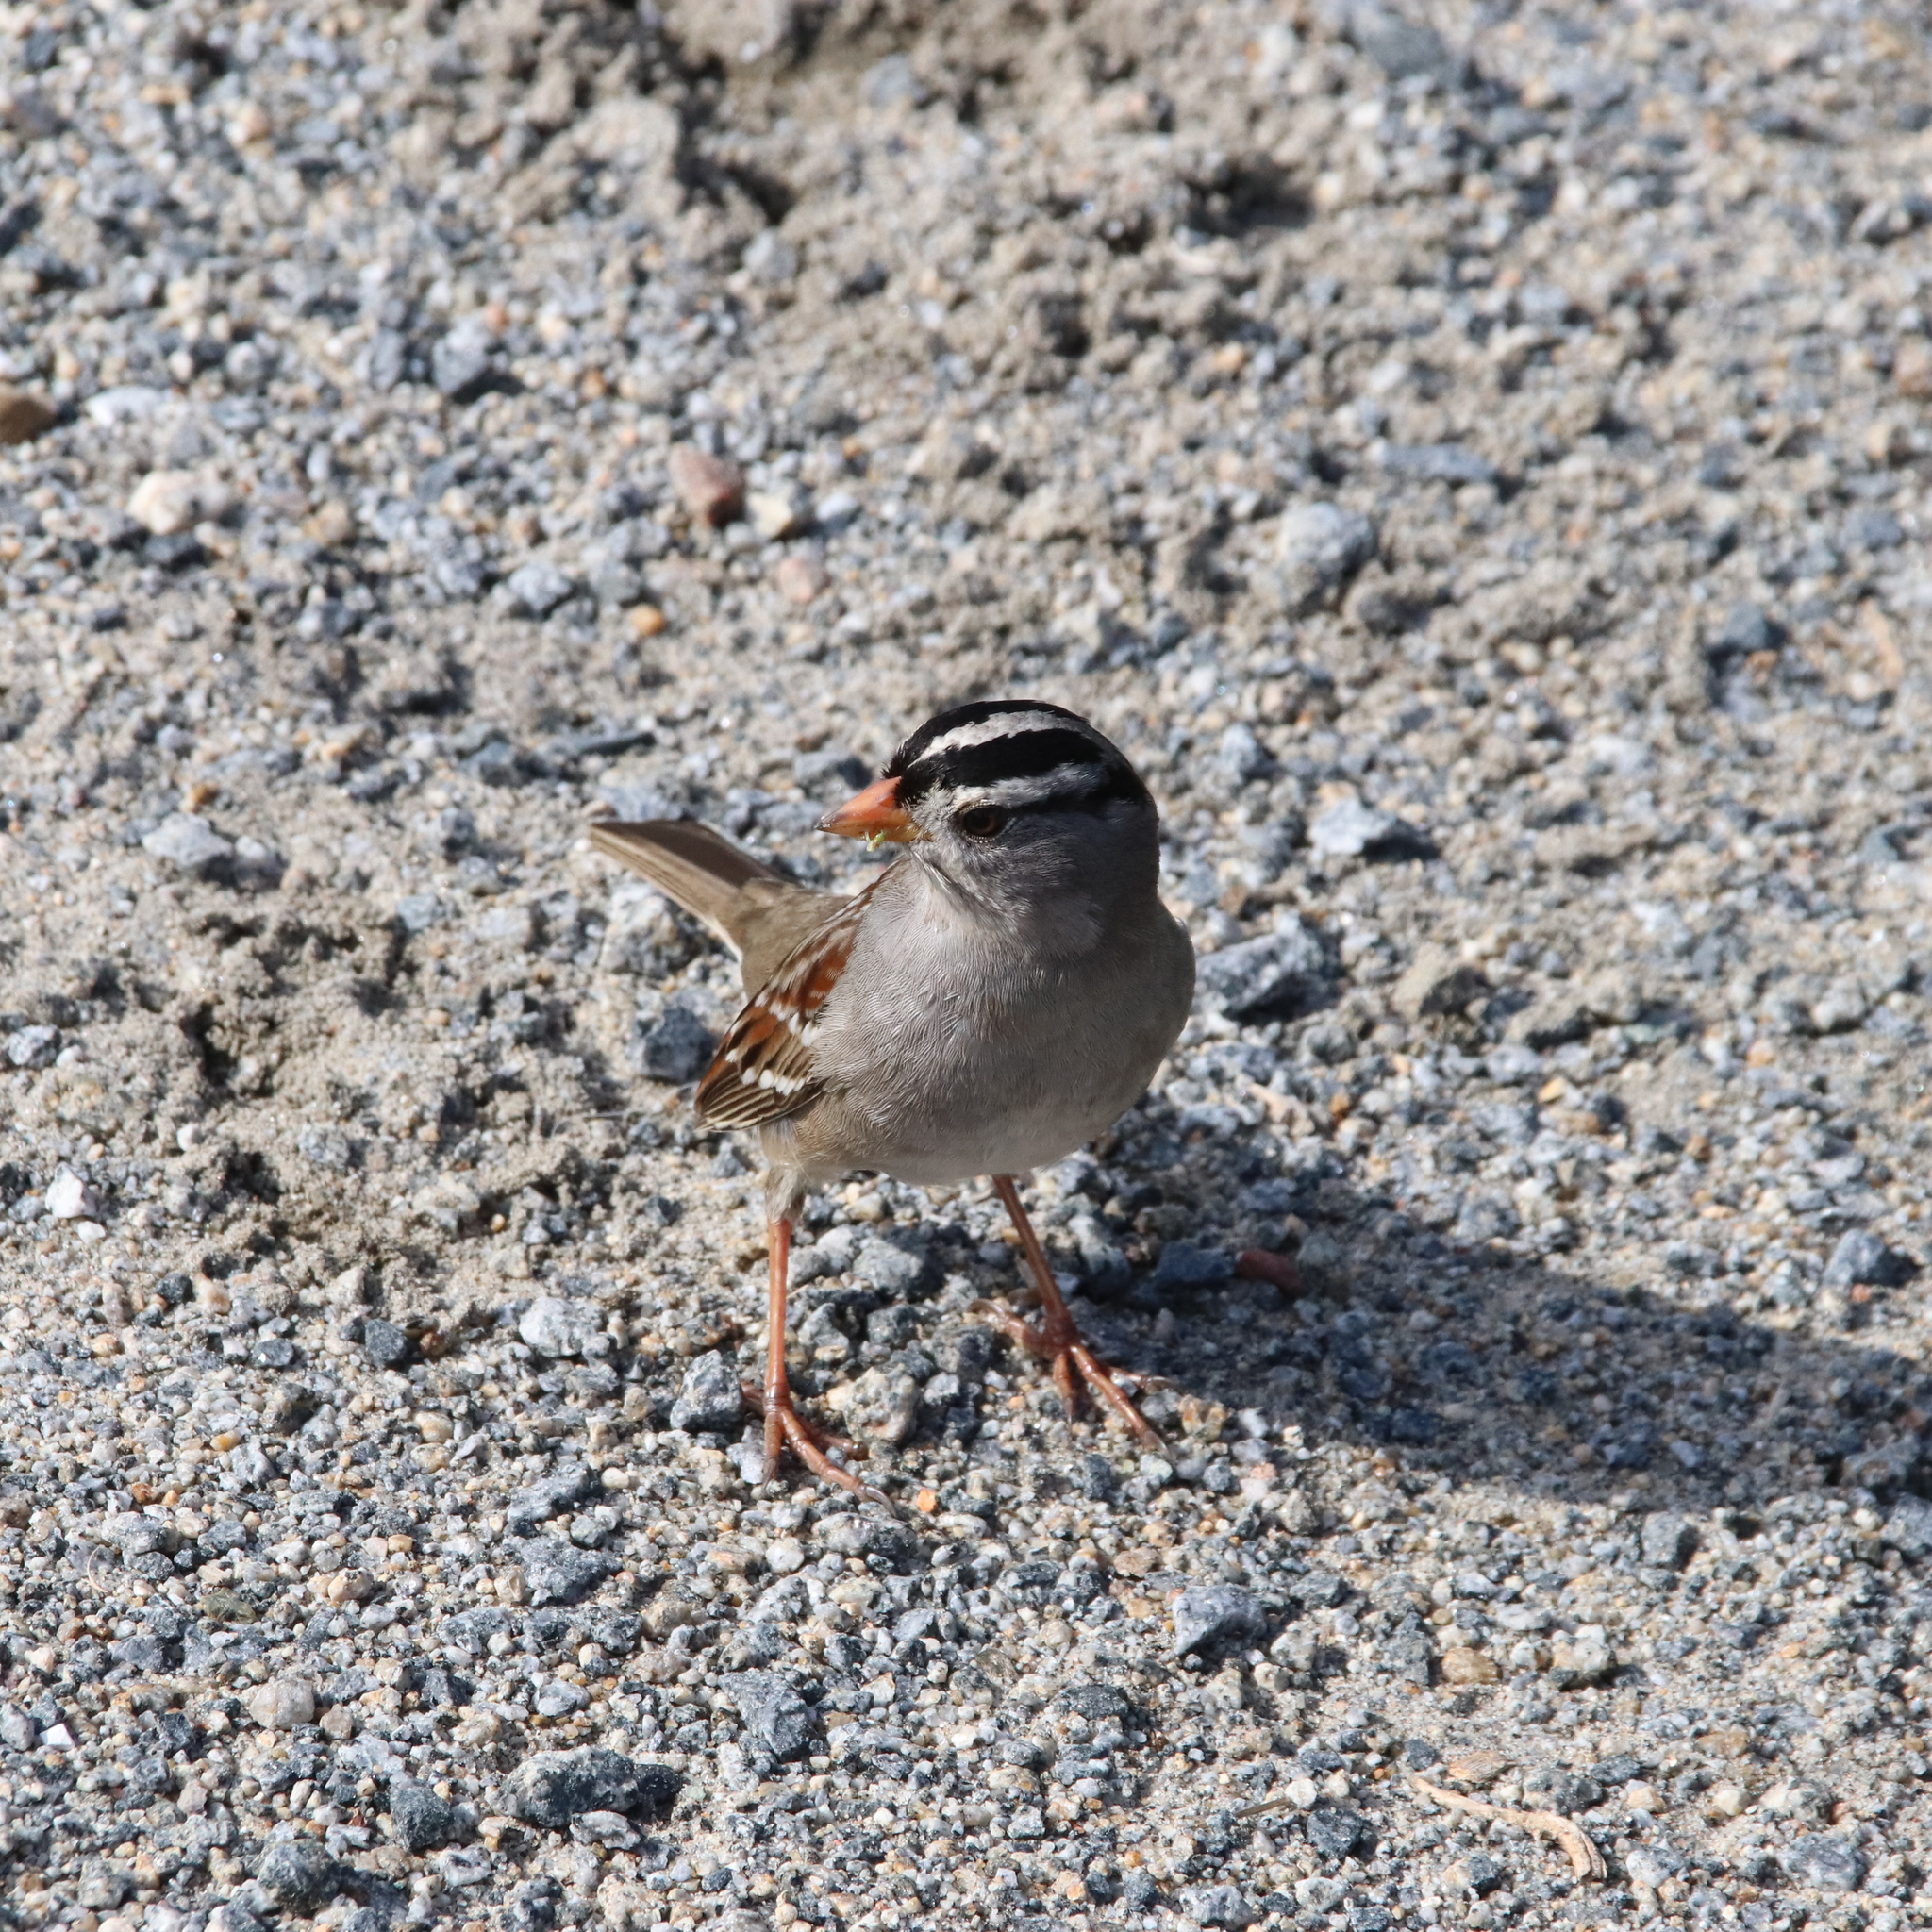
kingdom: Animalia
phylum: Chordata
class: Aves
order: Passeriformes
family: Passerellidae
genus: Zonotrichia
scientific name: Zonotrichia leucophrys
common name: White-crowned sparrow
